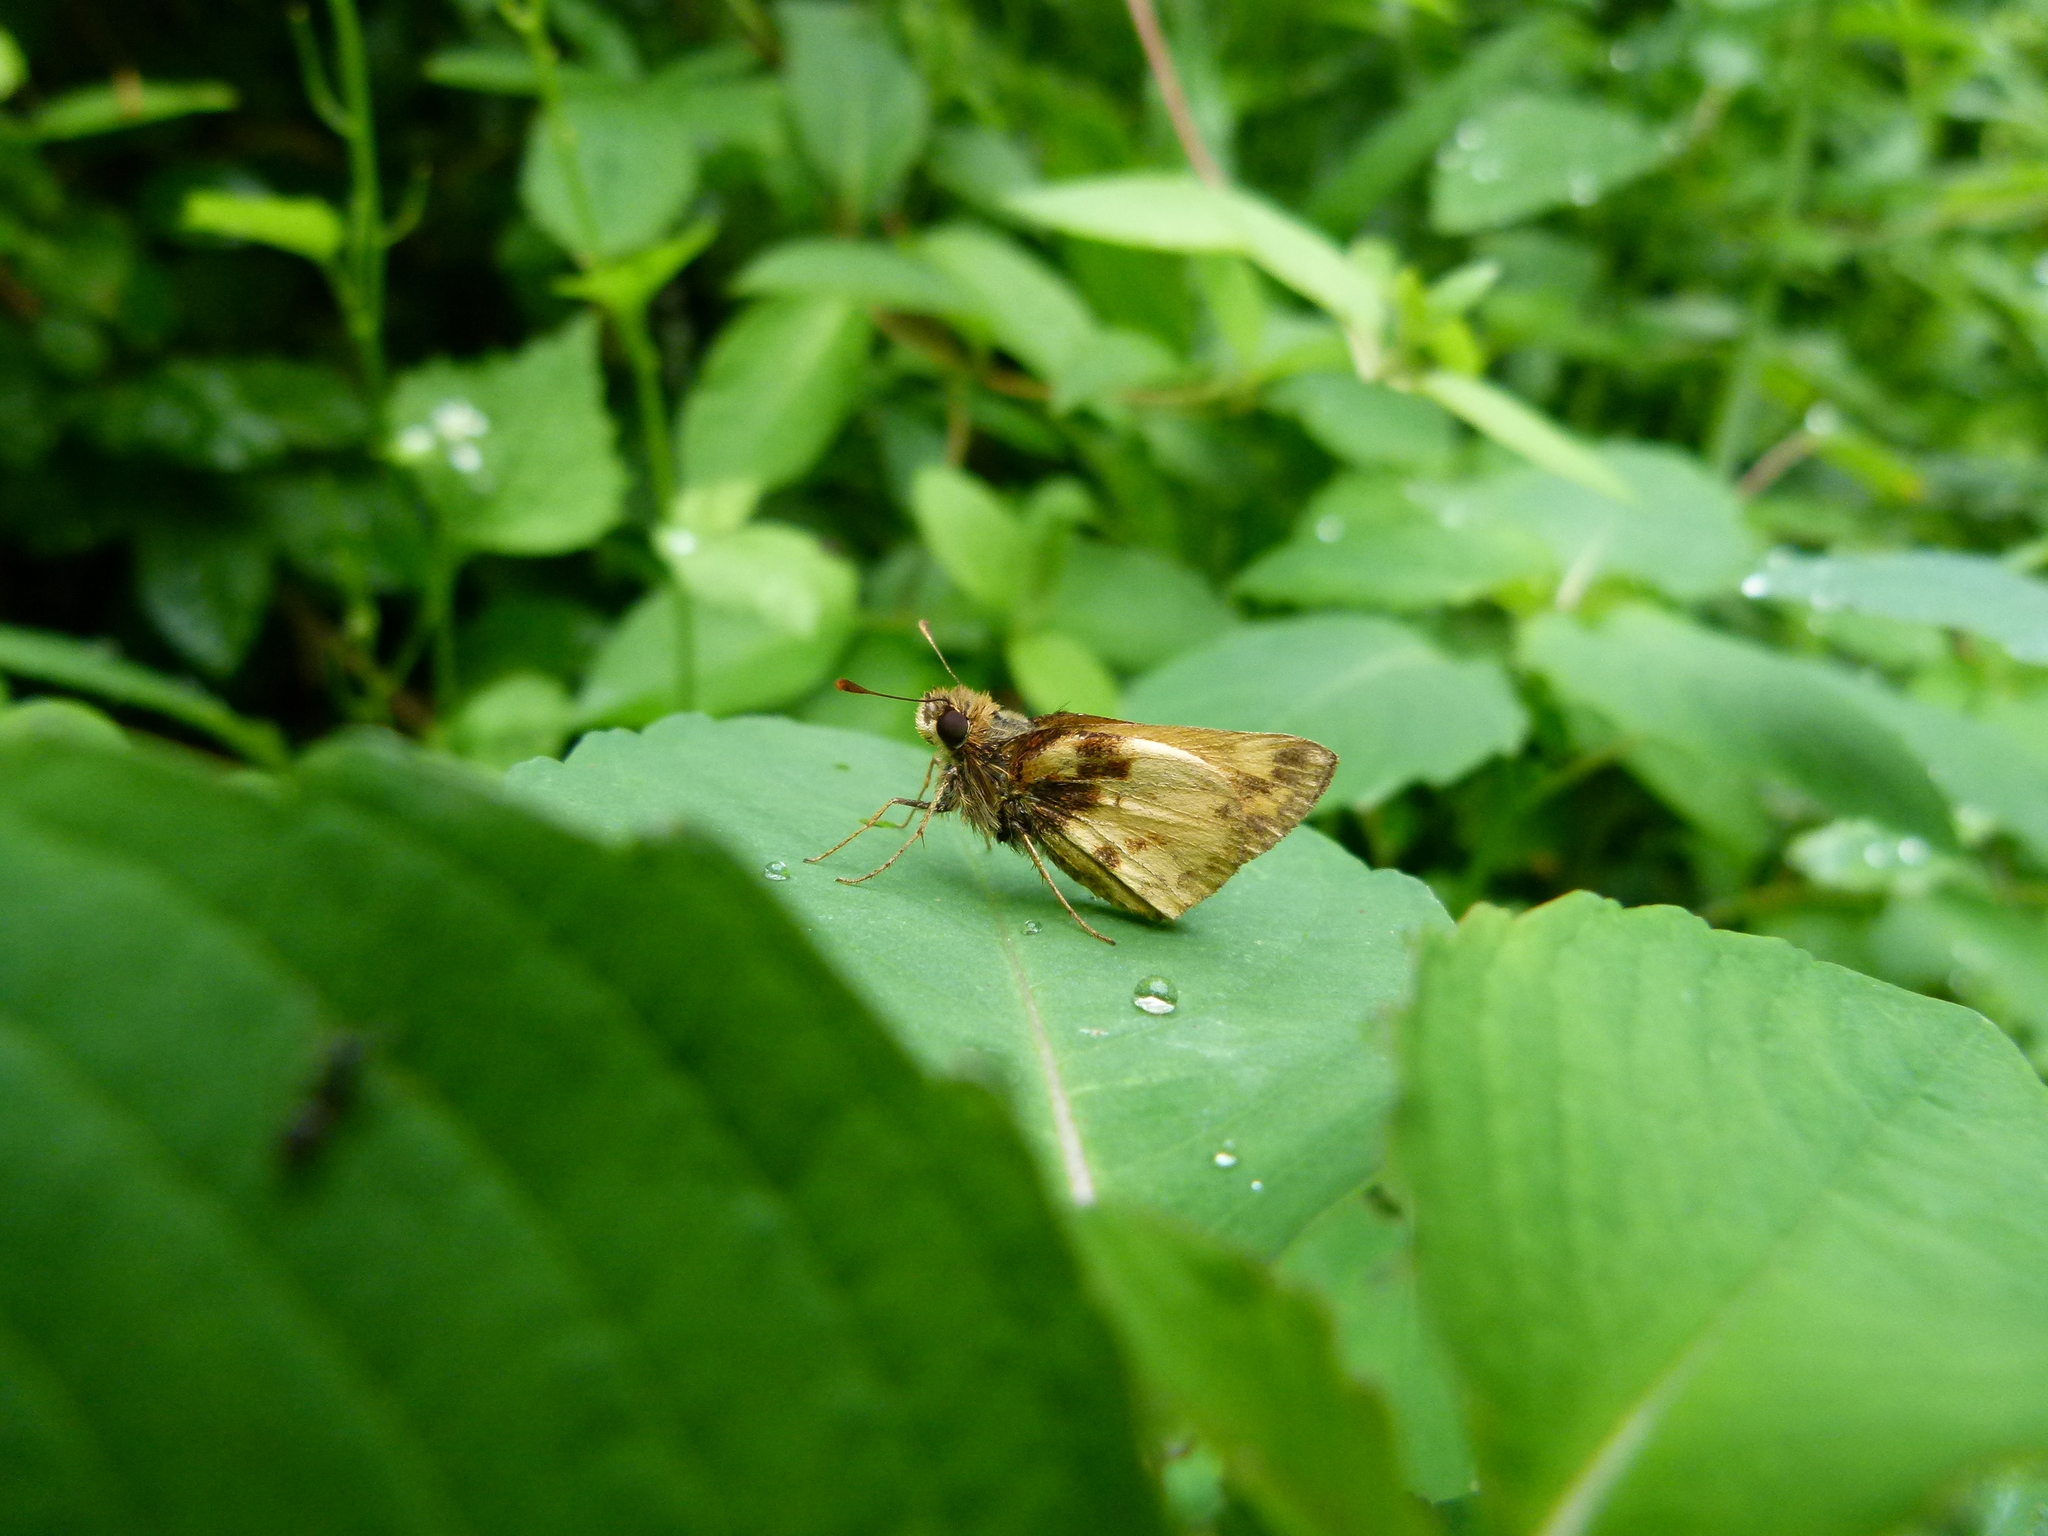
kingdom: Animalia
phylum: Arthropoda
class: Insecta
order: Lepidoptera
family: Hesperiidae
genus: Lon
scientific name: Lon zabulon
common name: Zabulon skipper
